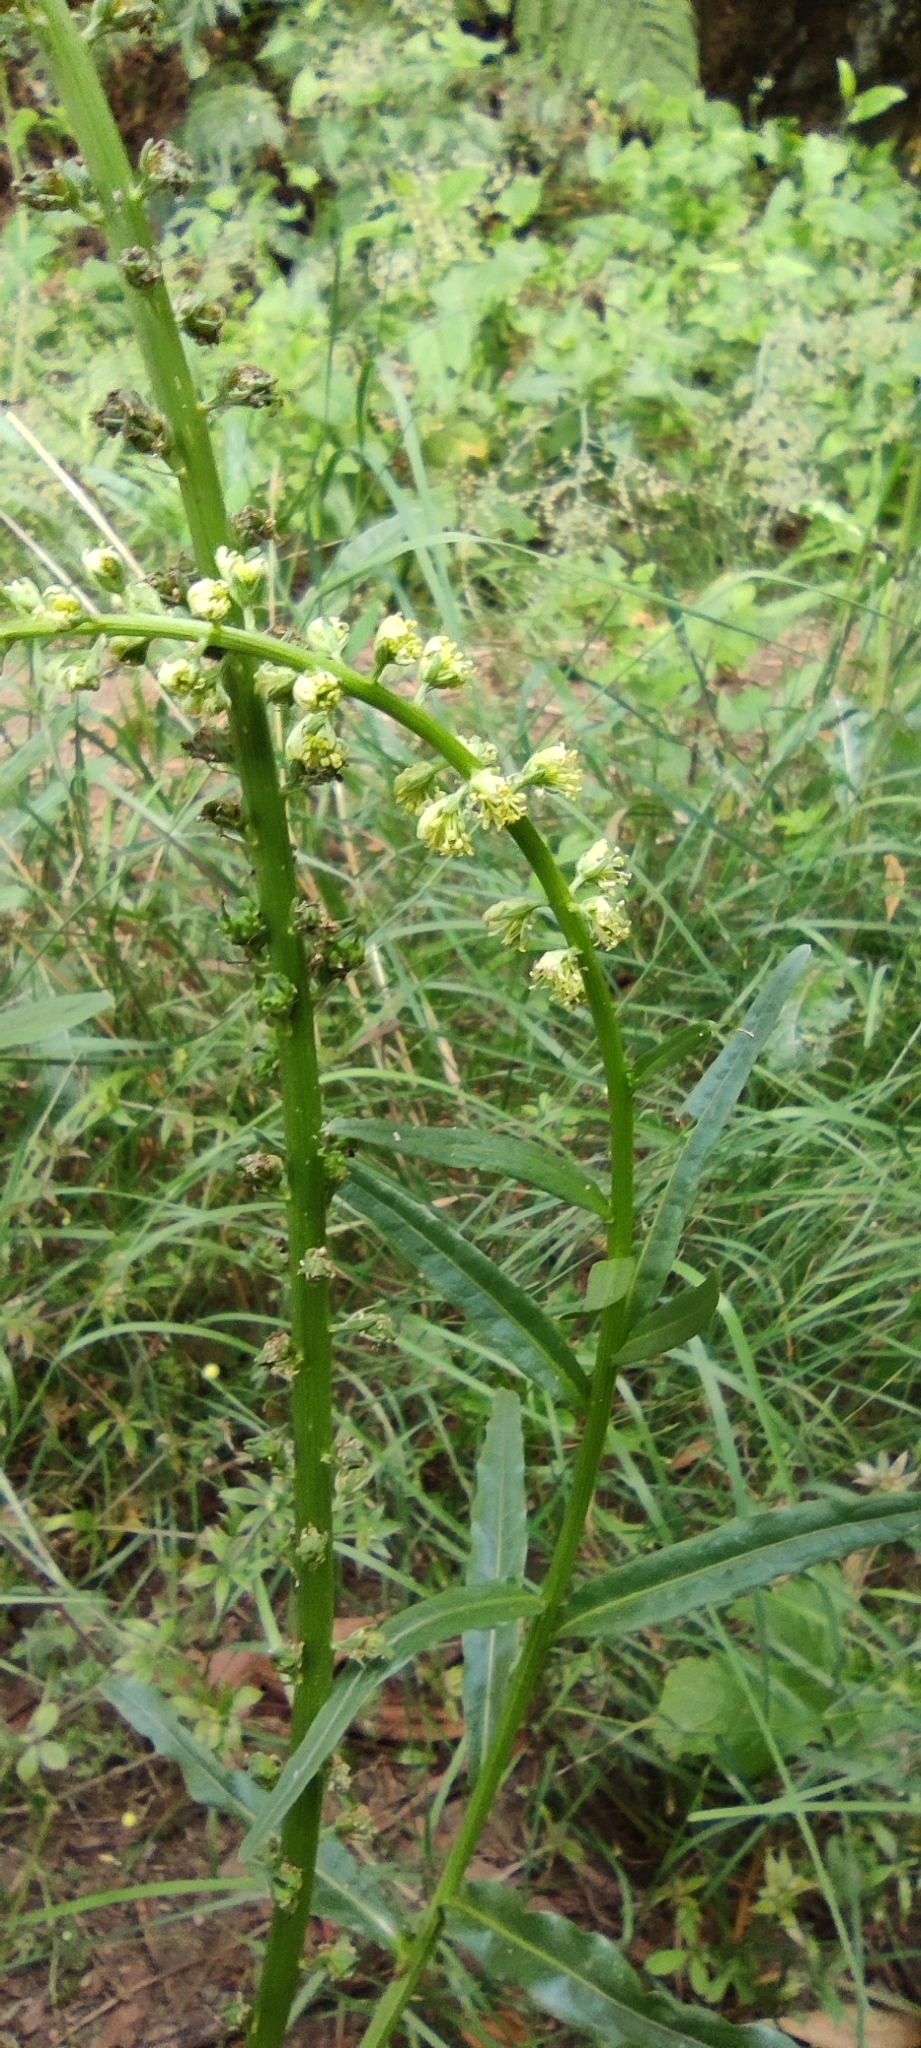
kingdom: Plantae
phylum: Tracheophyta
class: Magnoliopsida
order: Brassicales
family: Resedaceae
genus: Reseda
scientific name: Reseda luteola
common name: Weld
